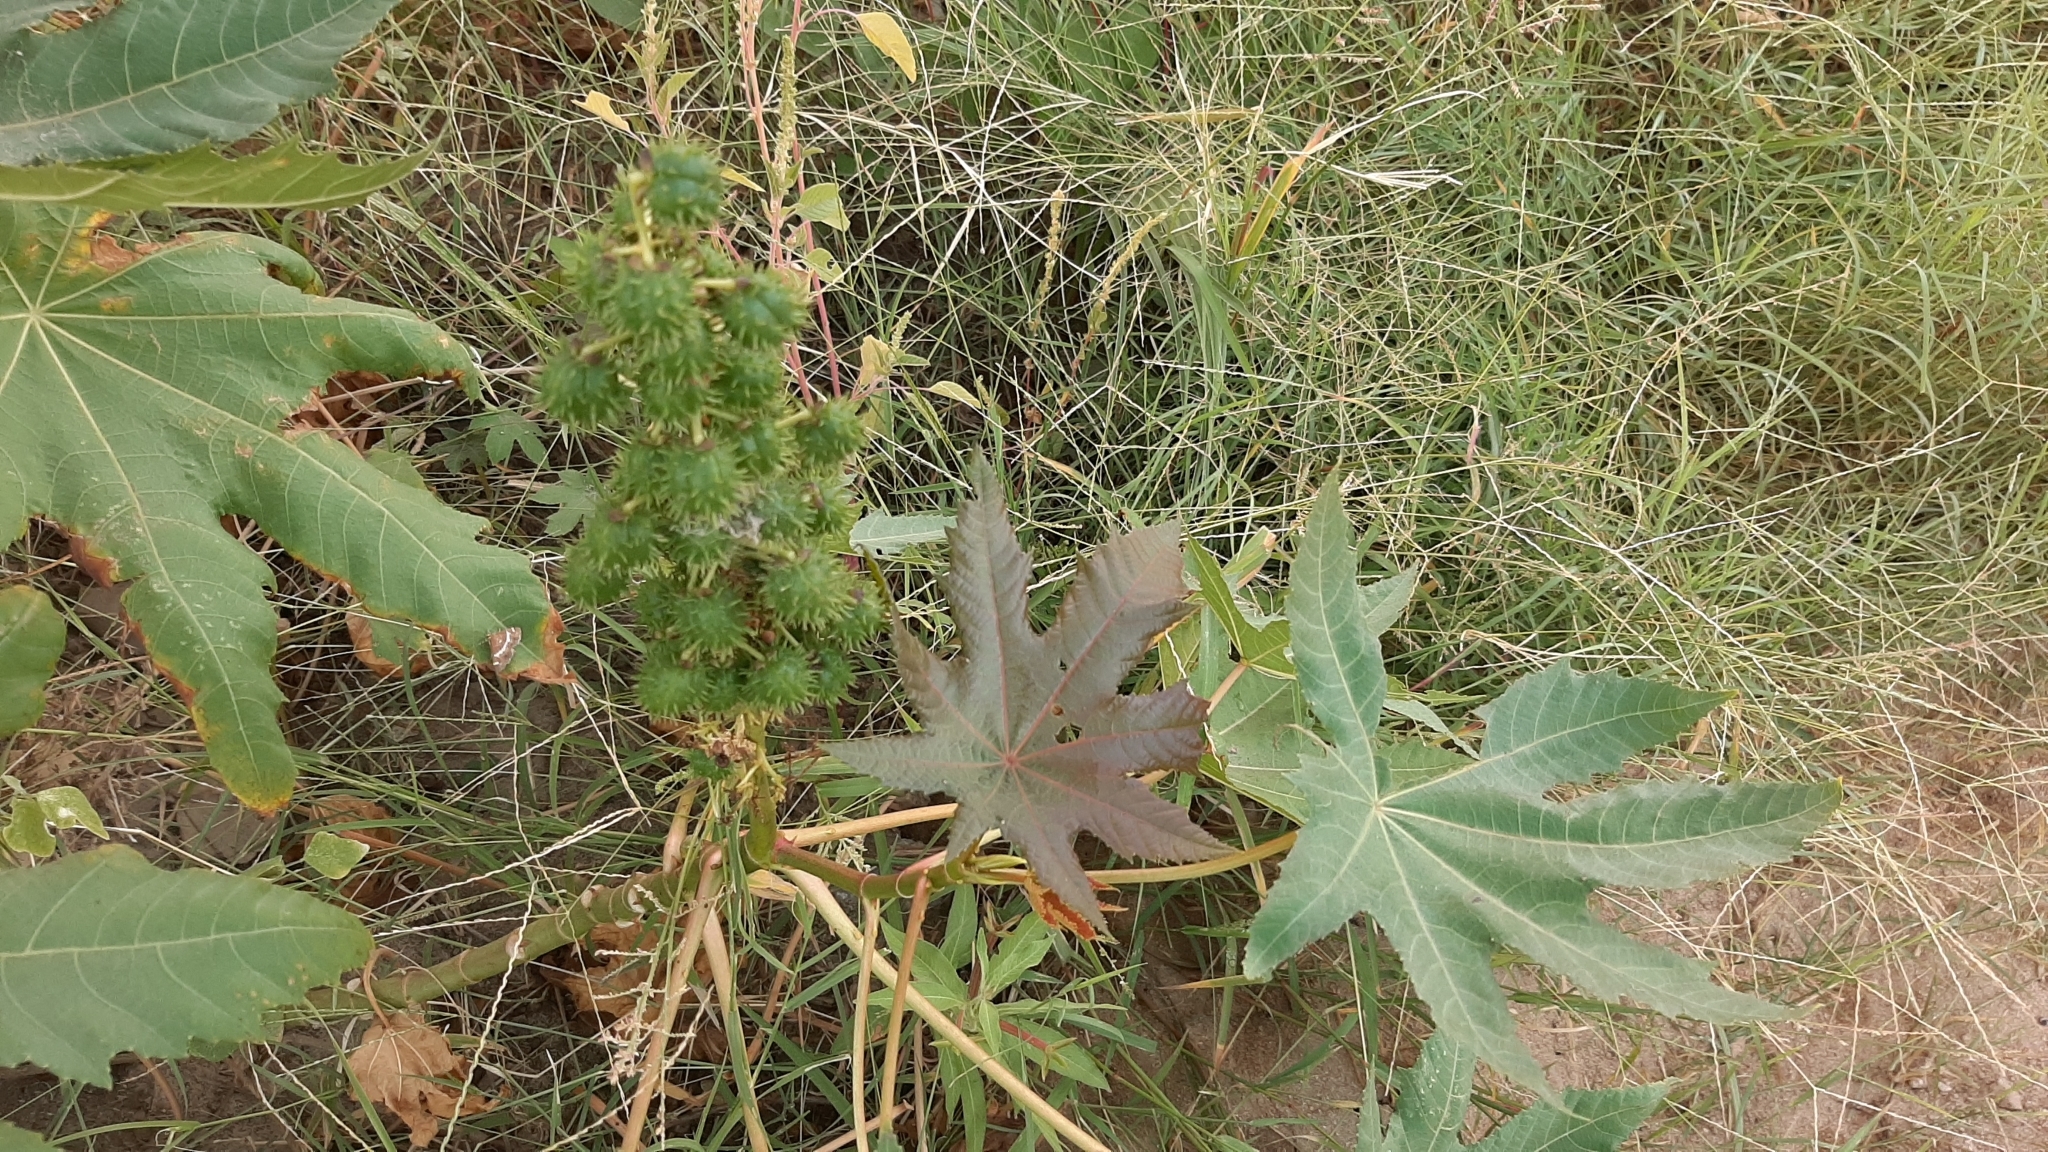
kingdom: Plantae
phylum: Tracheophyta
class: Magnoliopsida
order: Malpighiales
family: Euphorbiaceae
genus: Ricinus
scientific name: Ricinus communis
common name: Castor-oil-plant
